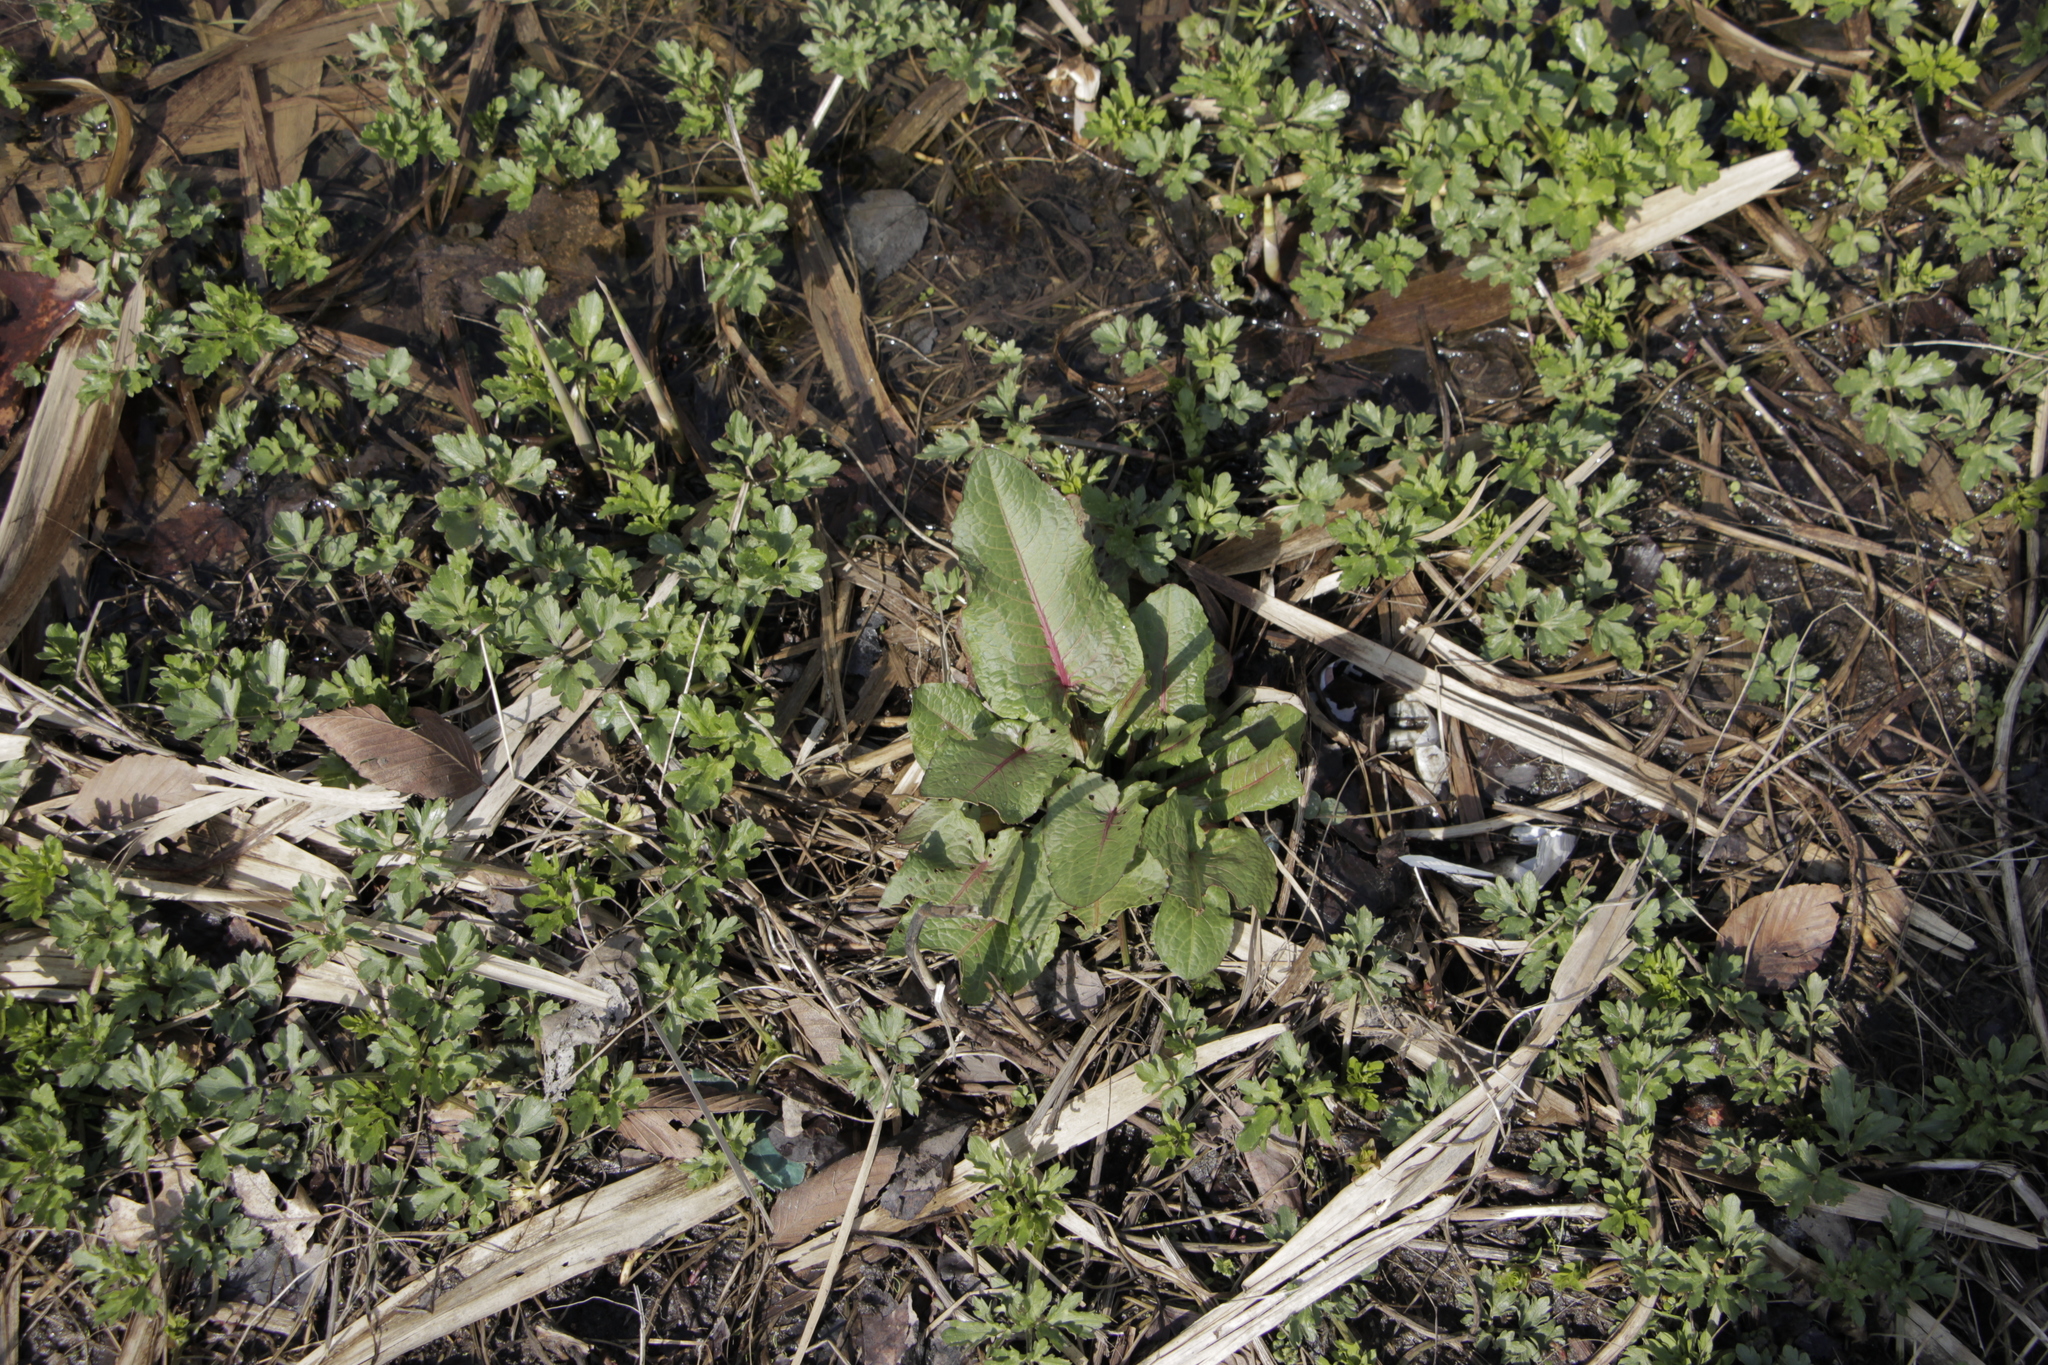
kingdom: Plantae
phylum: Tracheophyta
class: Magnoliopsida
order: Caryophyllales
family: Polygonaceae
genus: Rumex
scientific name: Rumex obtusifolius
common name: Bitter dock
